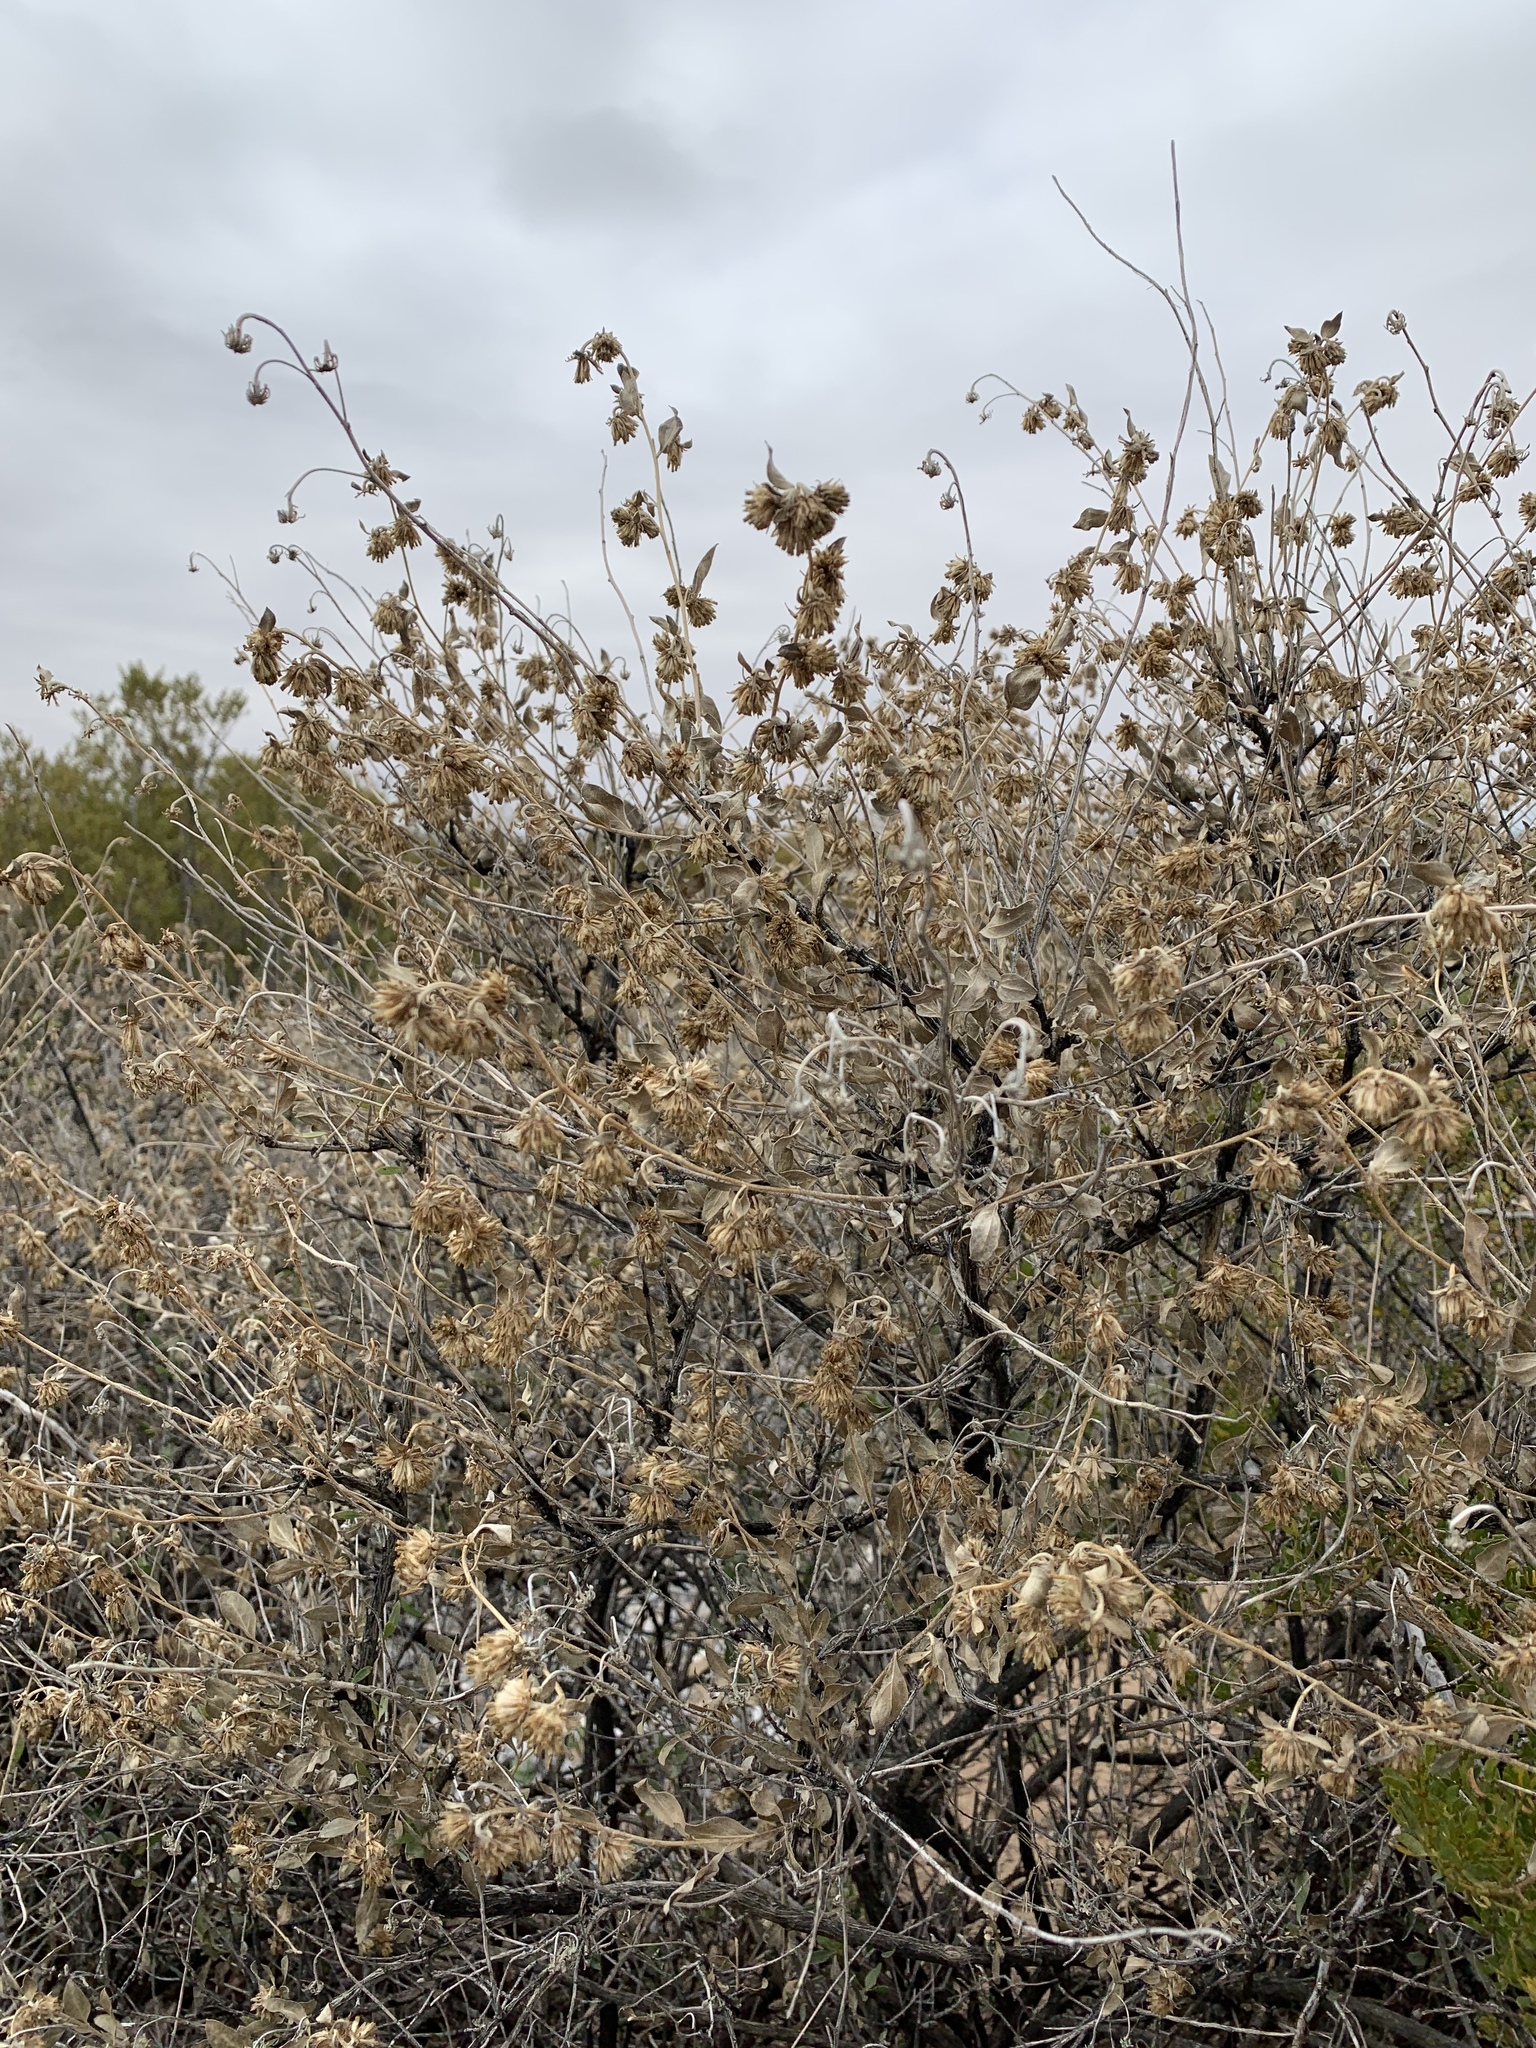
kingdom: Plantae
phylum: Tracheophyta
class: Magnoliopsida
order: Asterales
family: Asteraceae
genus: Flourensia
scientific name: Flourensia cernua
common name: Varnishbush
